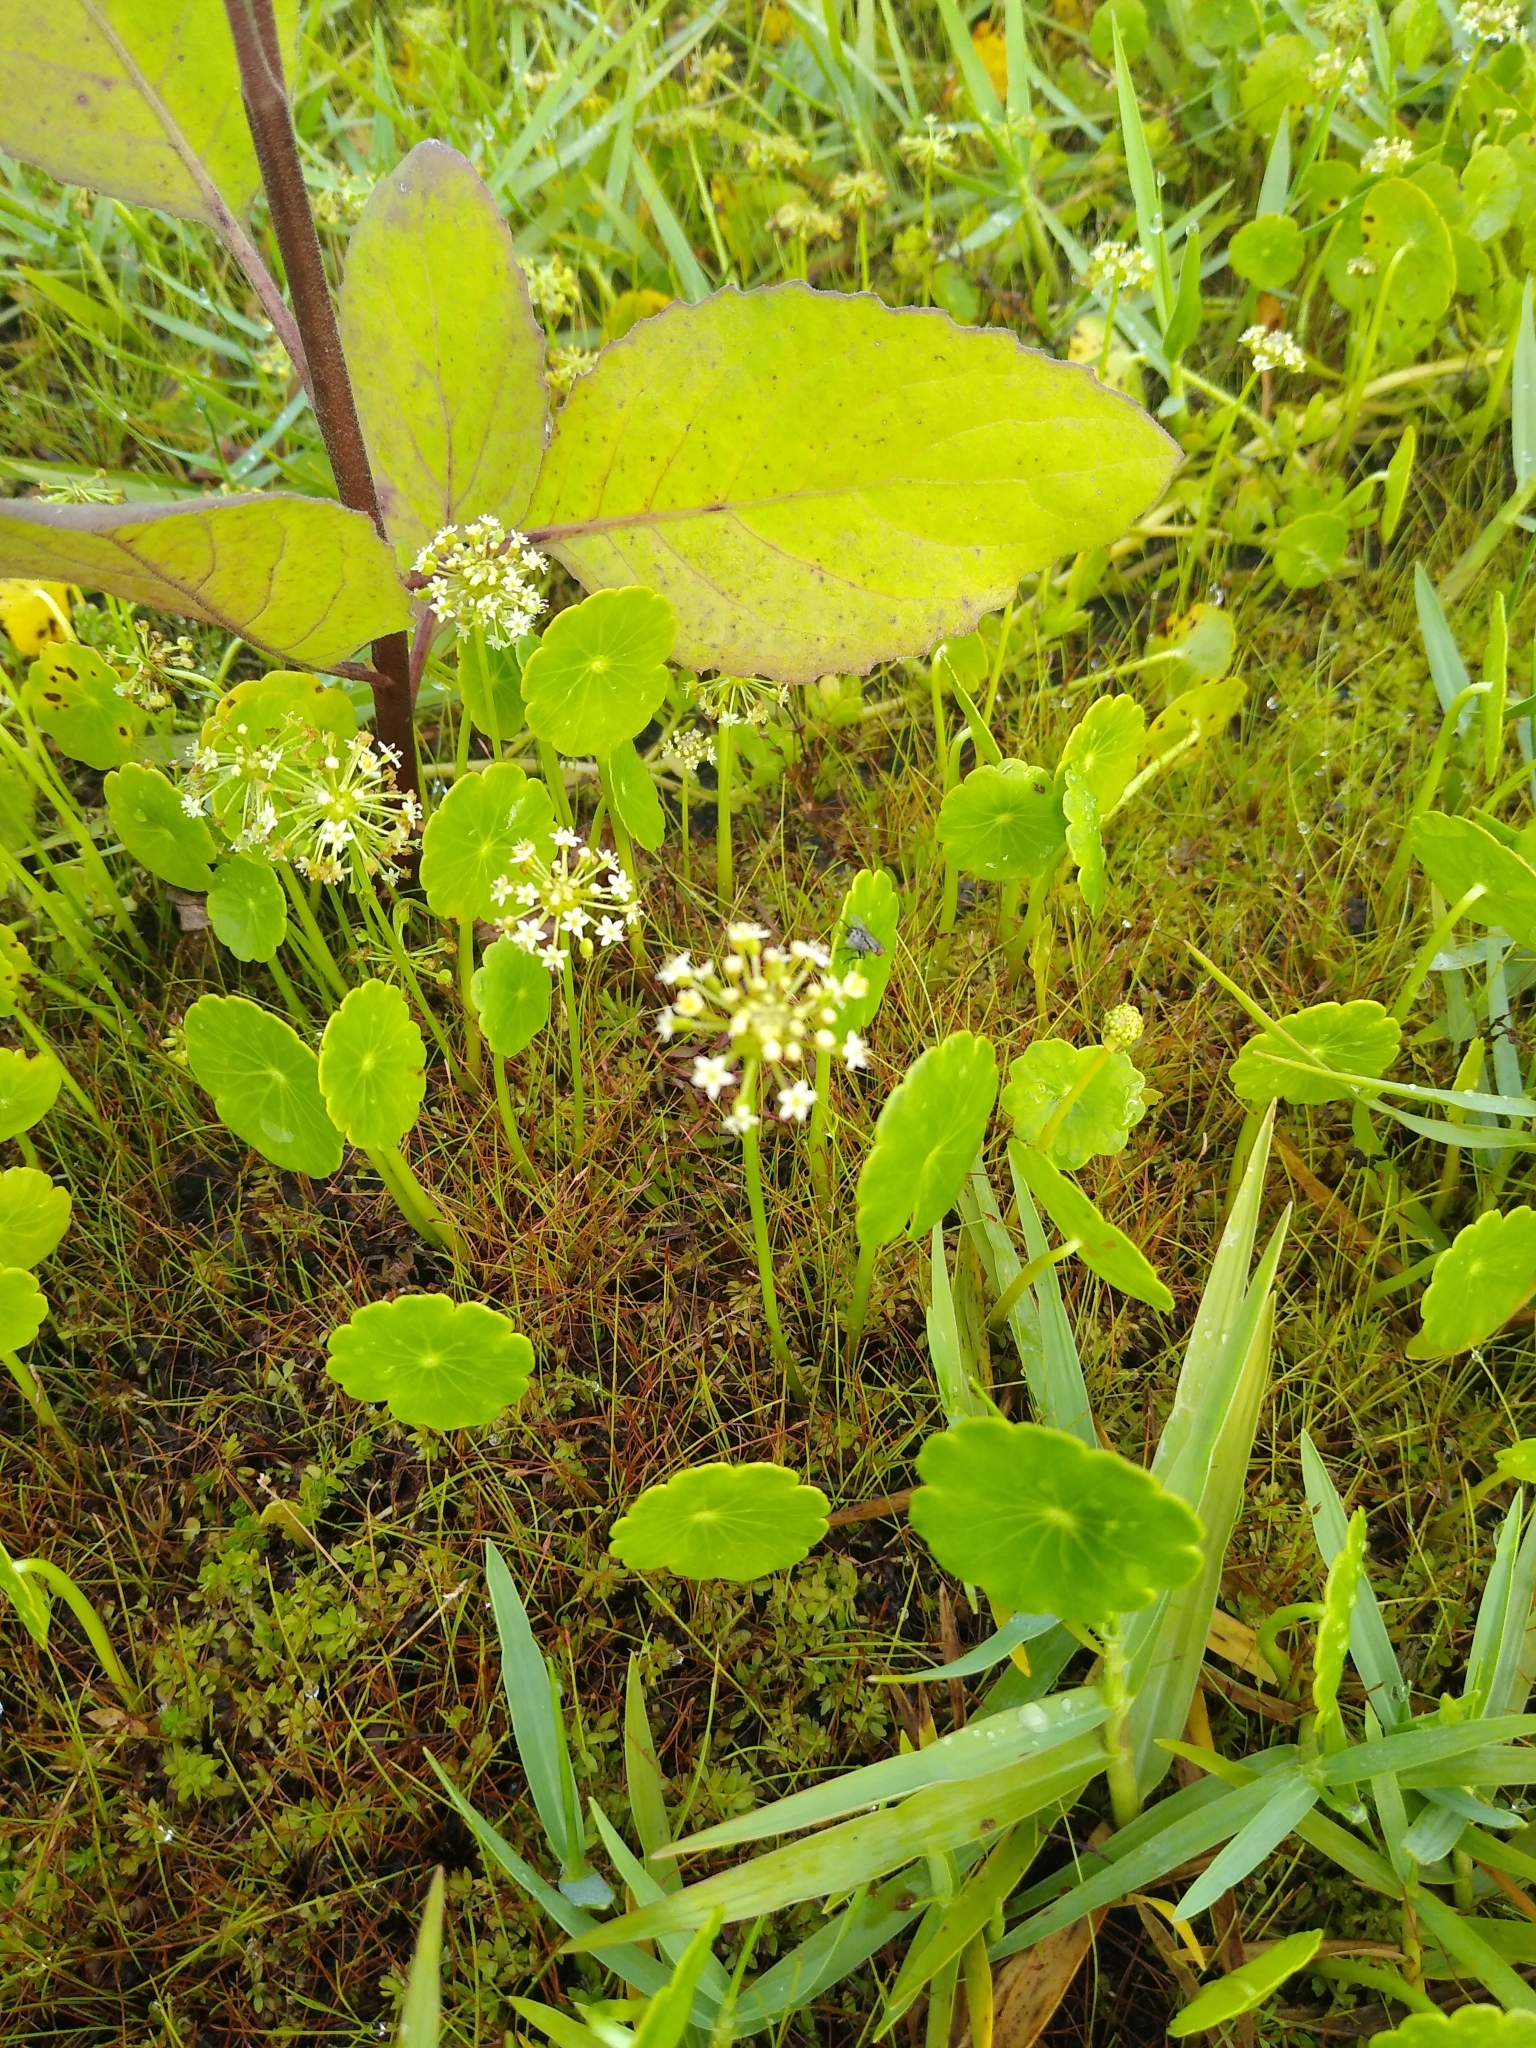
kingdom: Plantae
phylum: Tracheophyta
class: Magnoliopsida
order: Apiales
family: Araliaceae
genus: Hydrocotyle
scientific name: Hydrocotyle umbellata
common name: Water pennywort
